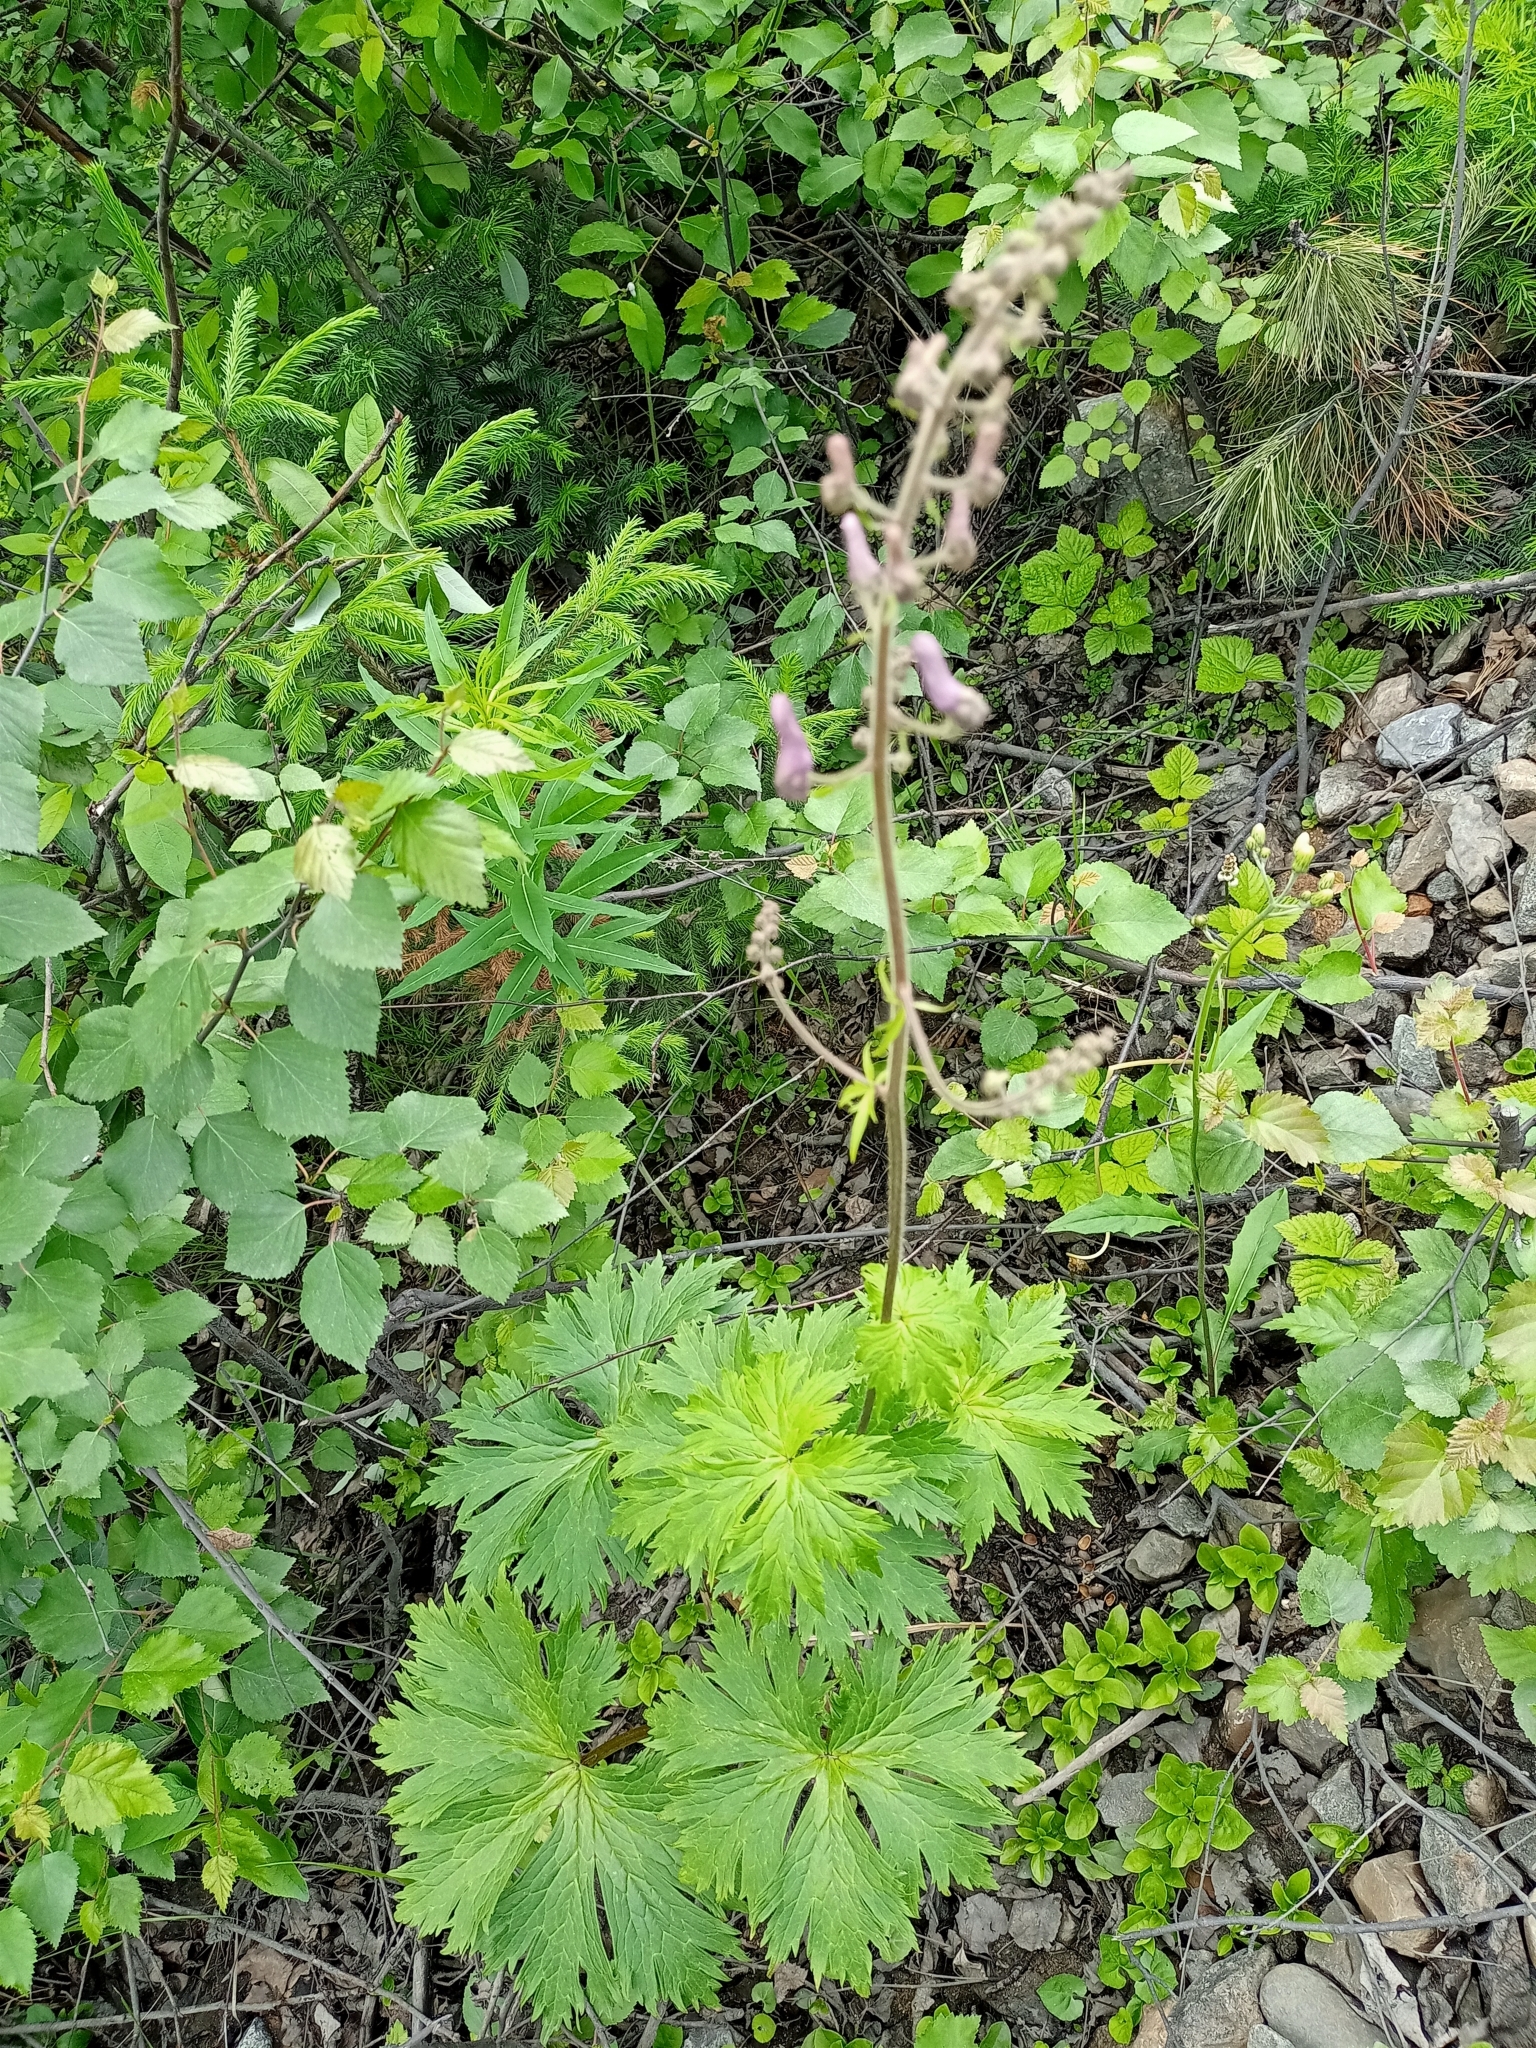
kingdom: Plantae
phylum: Tracheophyta
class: Magnoliopsida
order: Ranunculales
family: Ranunculaceae
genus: Aconitum
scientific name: Aconitum septentrionale
